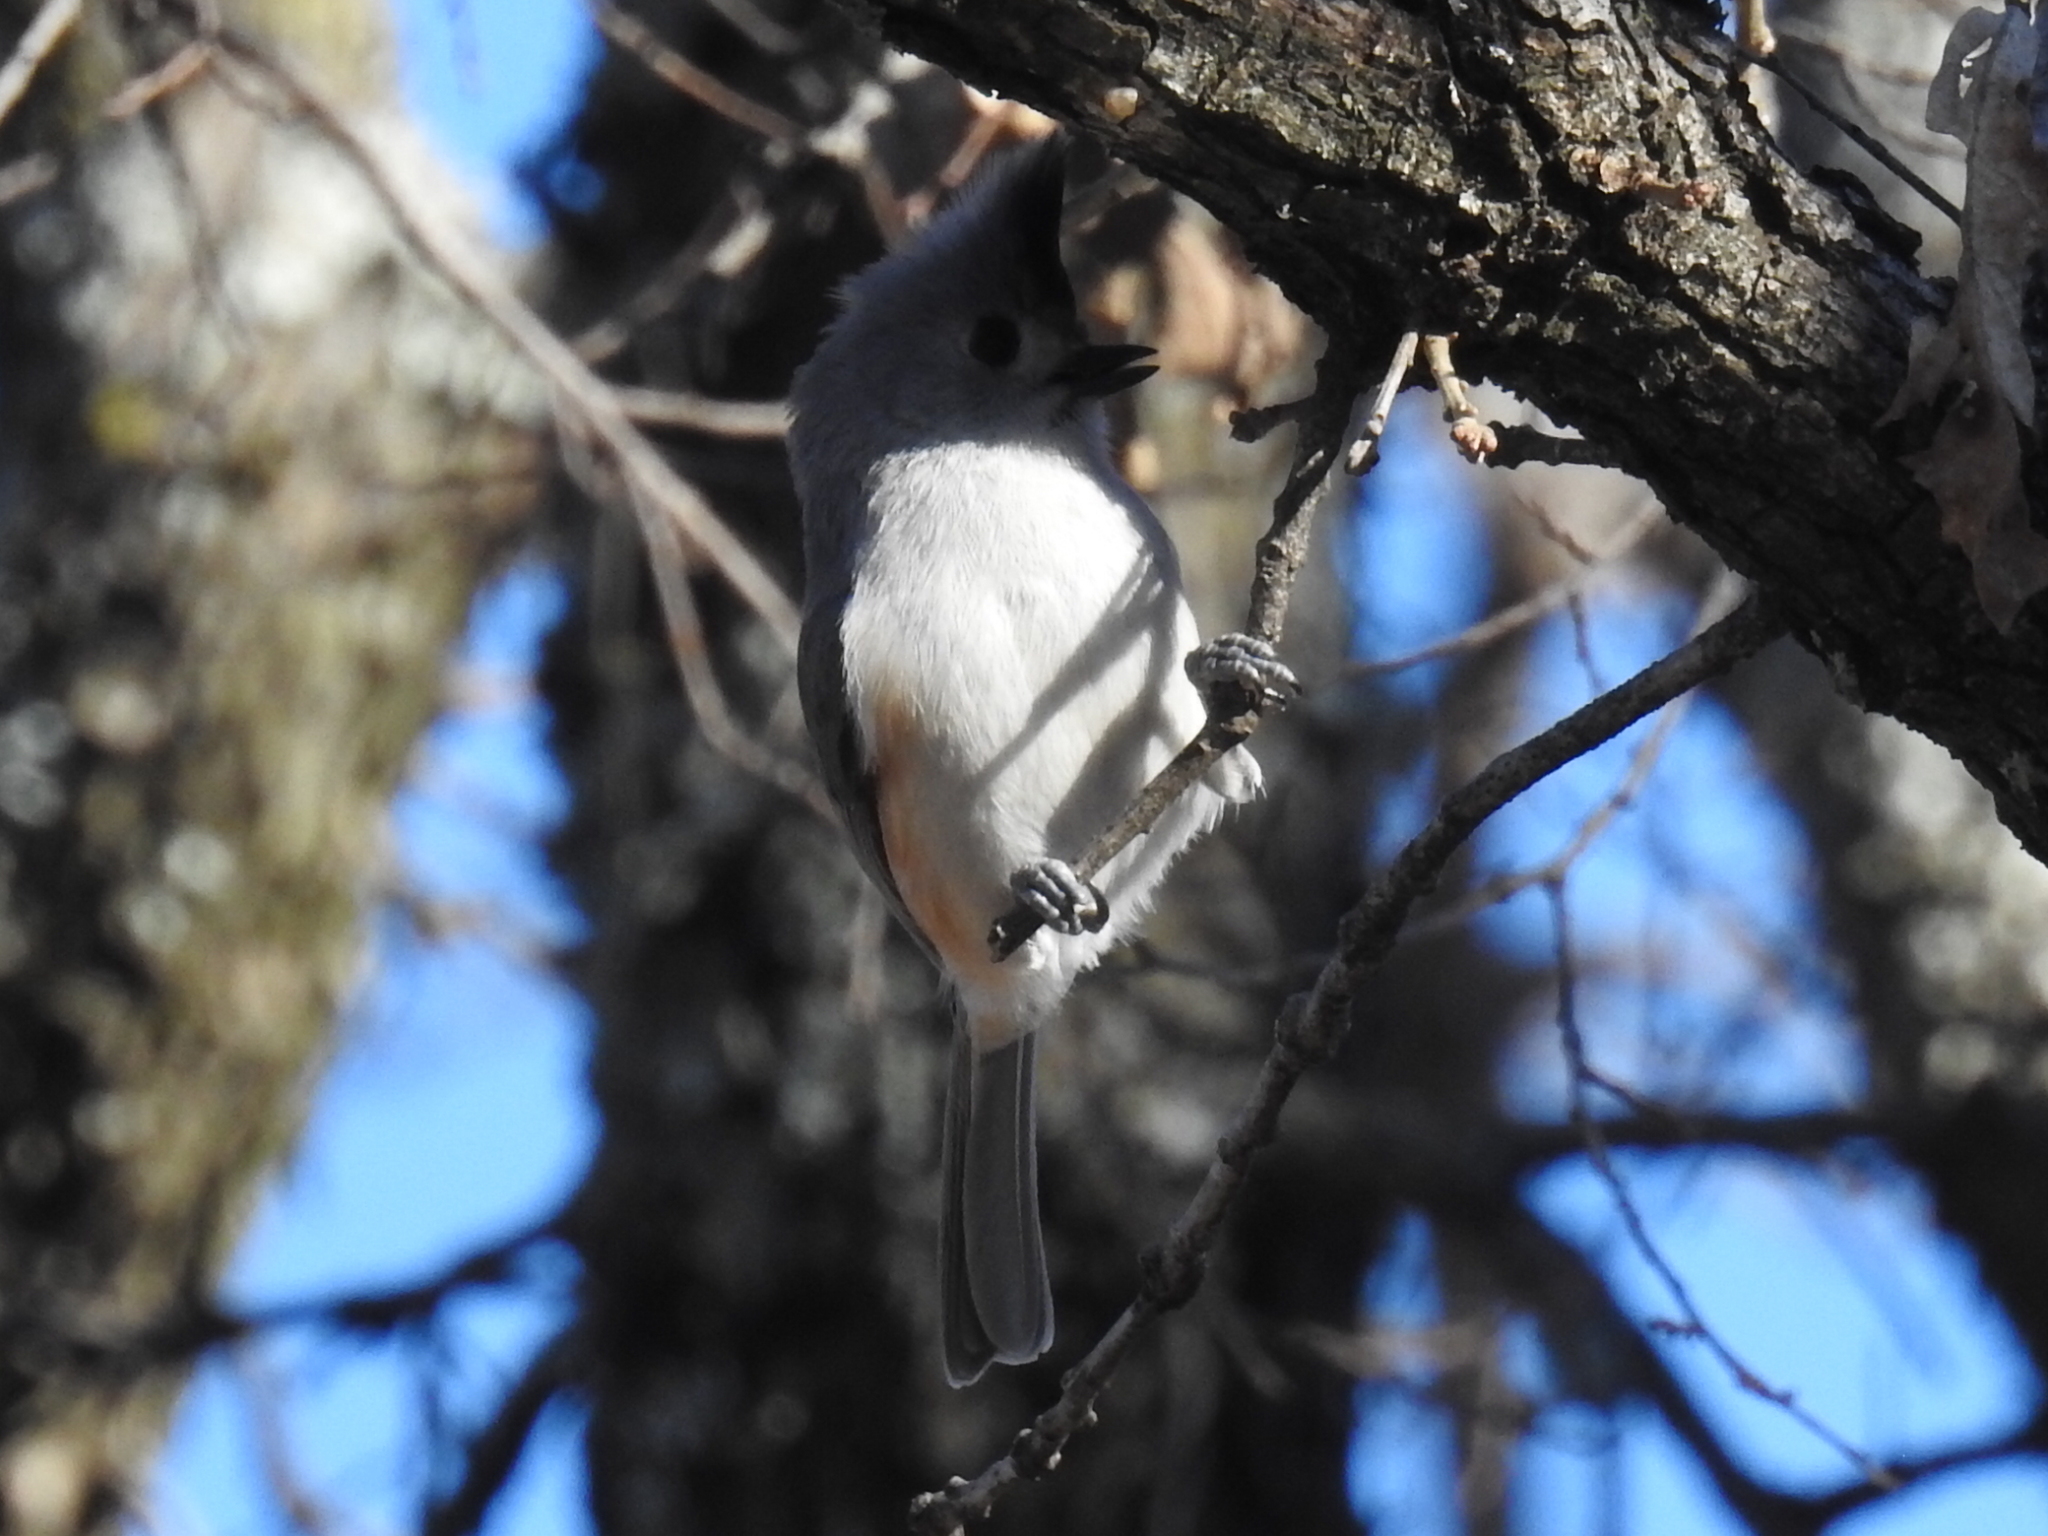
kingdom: Animalia
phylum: Chordata
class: Aves
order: Passeriformes
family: Paridae
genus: Baeolophus
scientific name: Baeolophus
